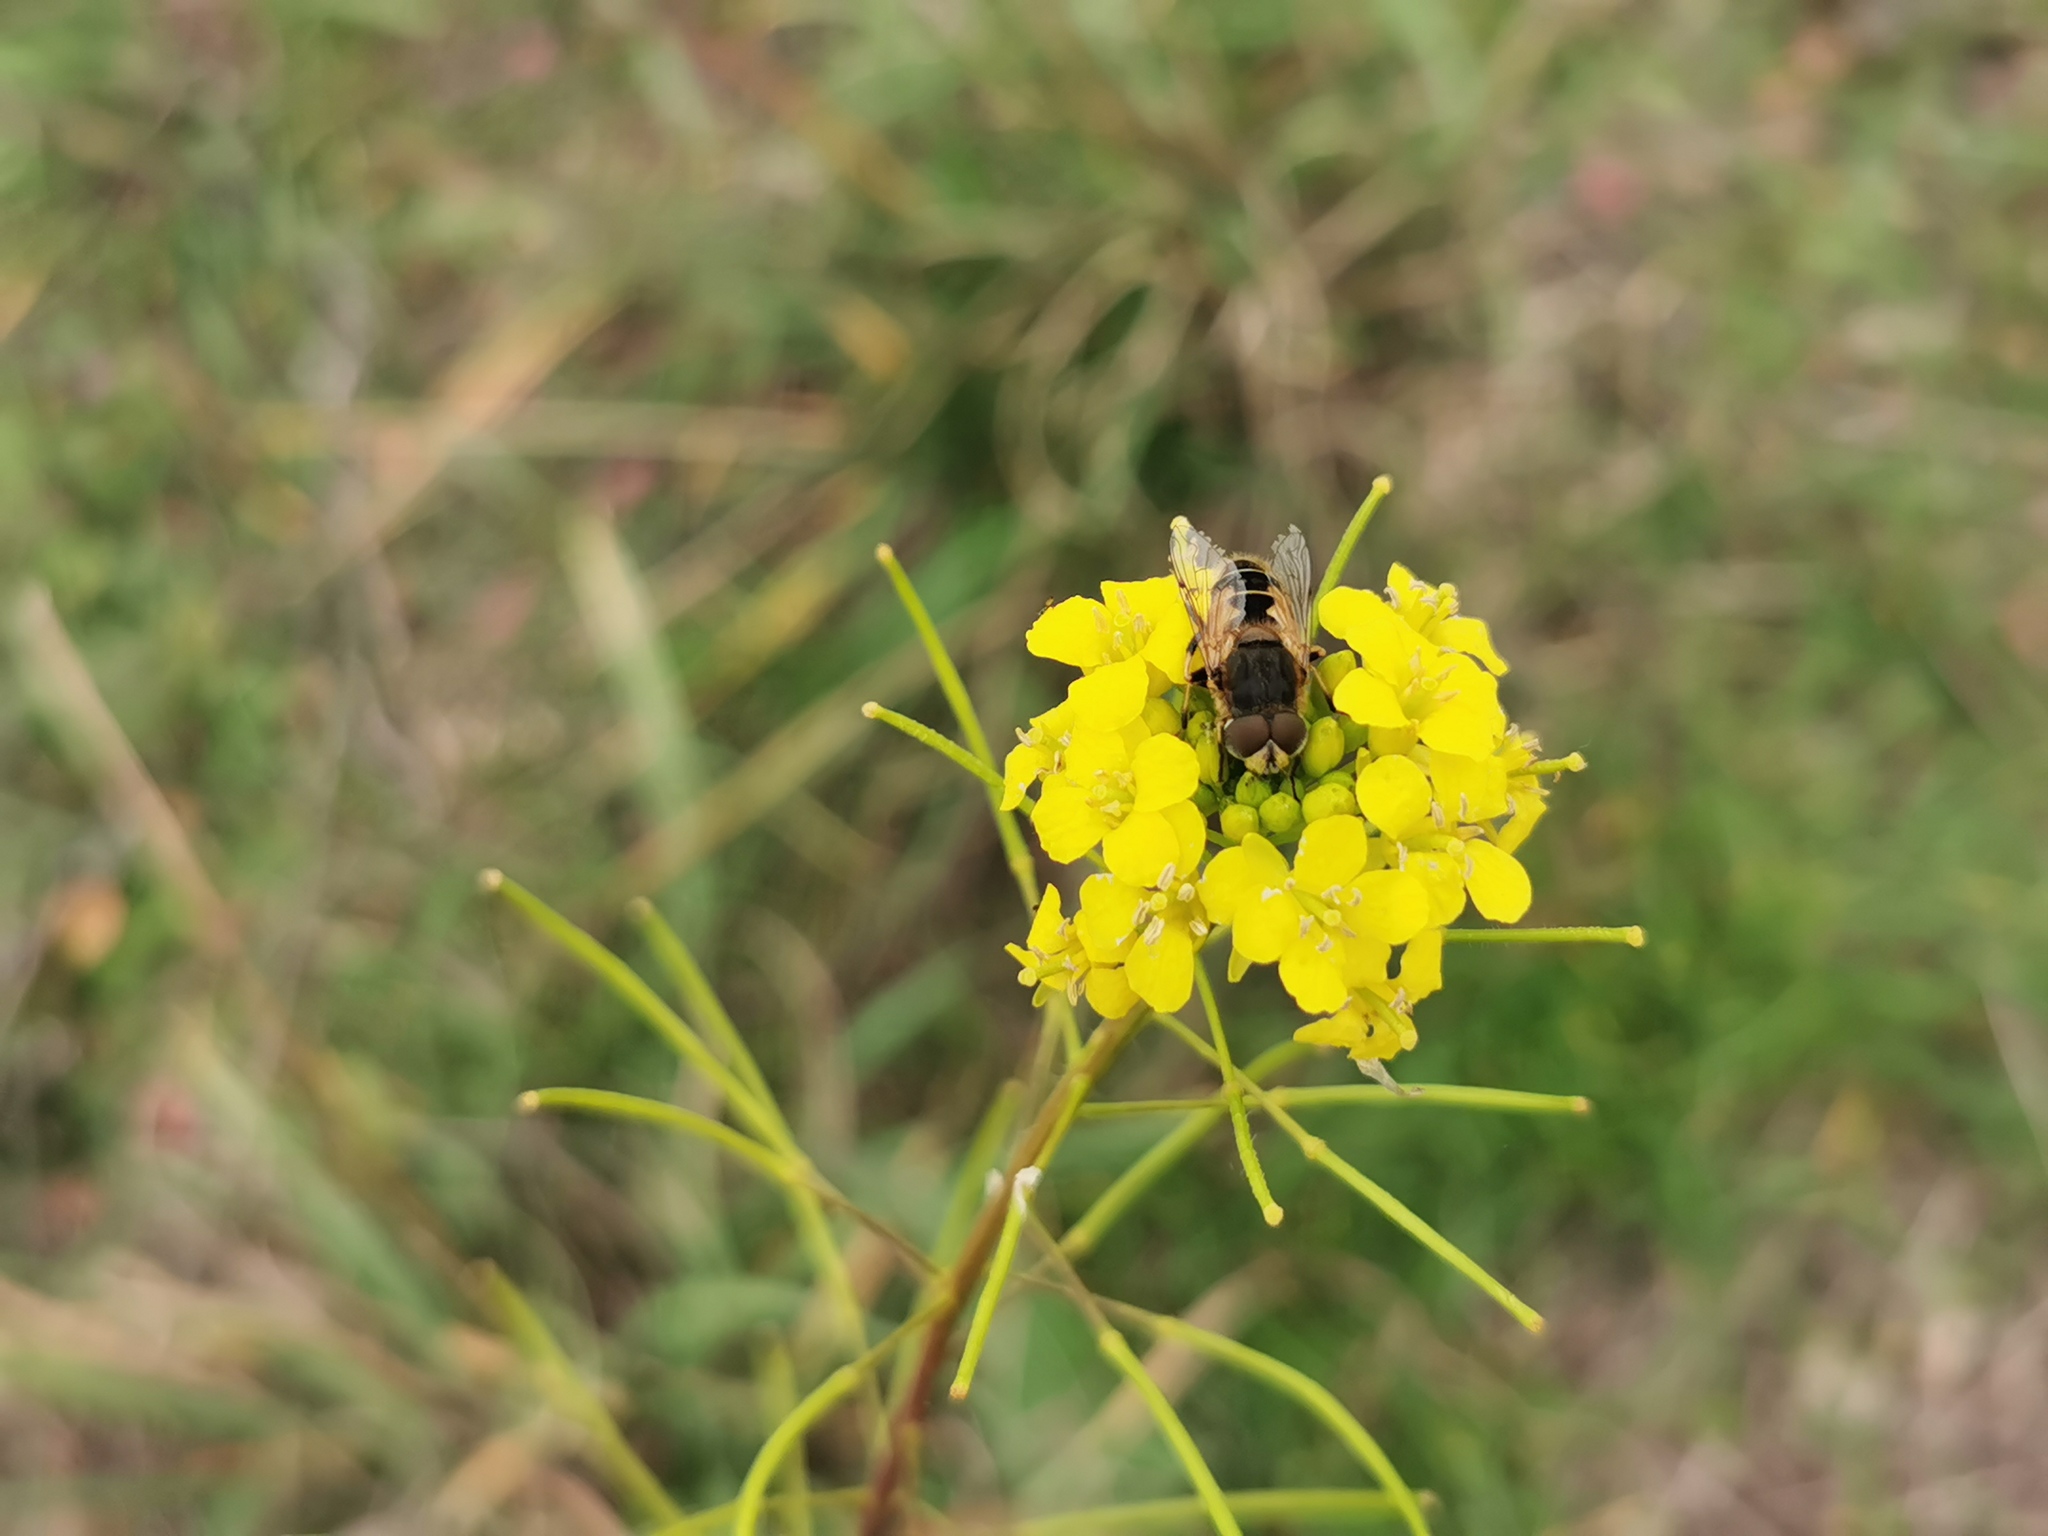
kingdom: Animalia
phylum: Arthropoda
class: Insecta
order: Diptera
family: Syrphidae
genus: Eristalis
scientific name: Eristalis arbustorum
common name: Hover fly
